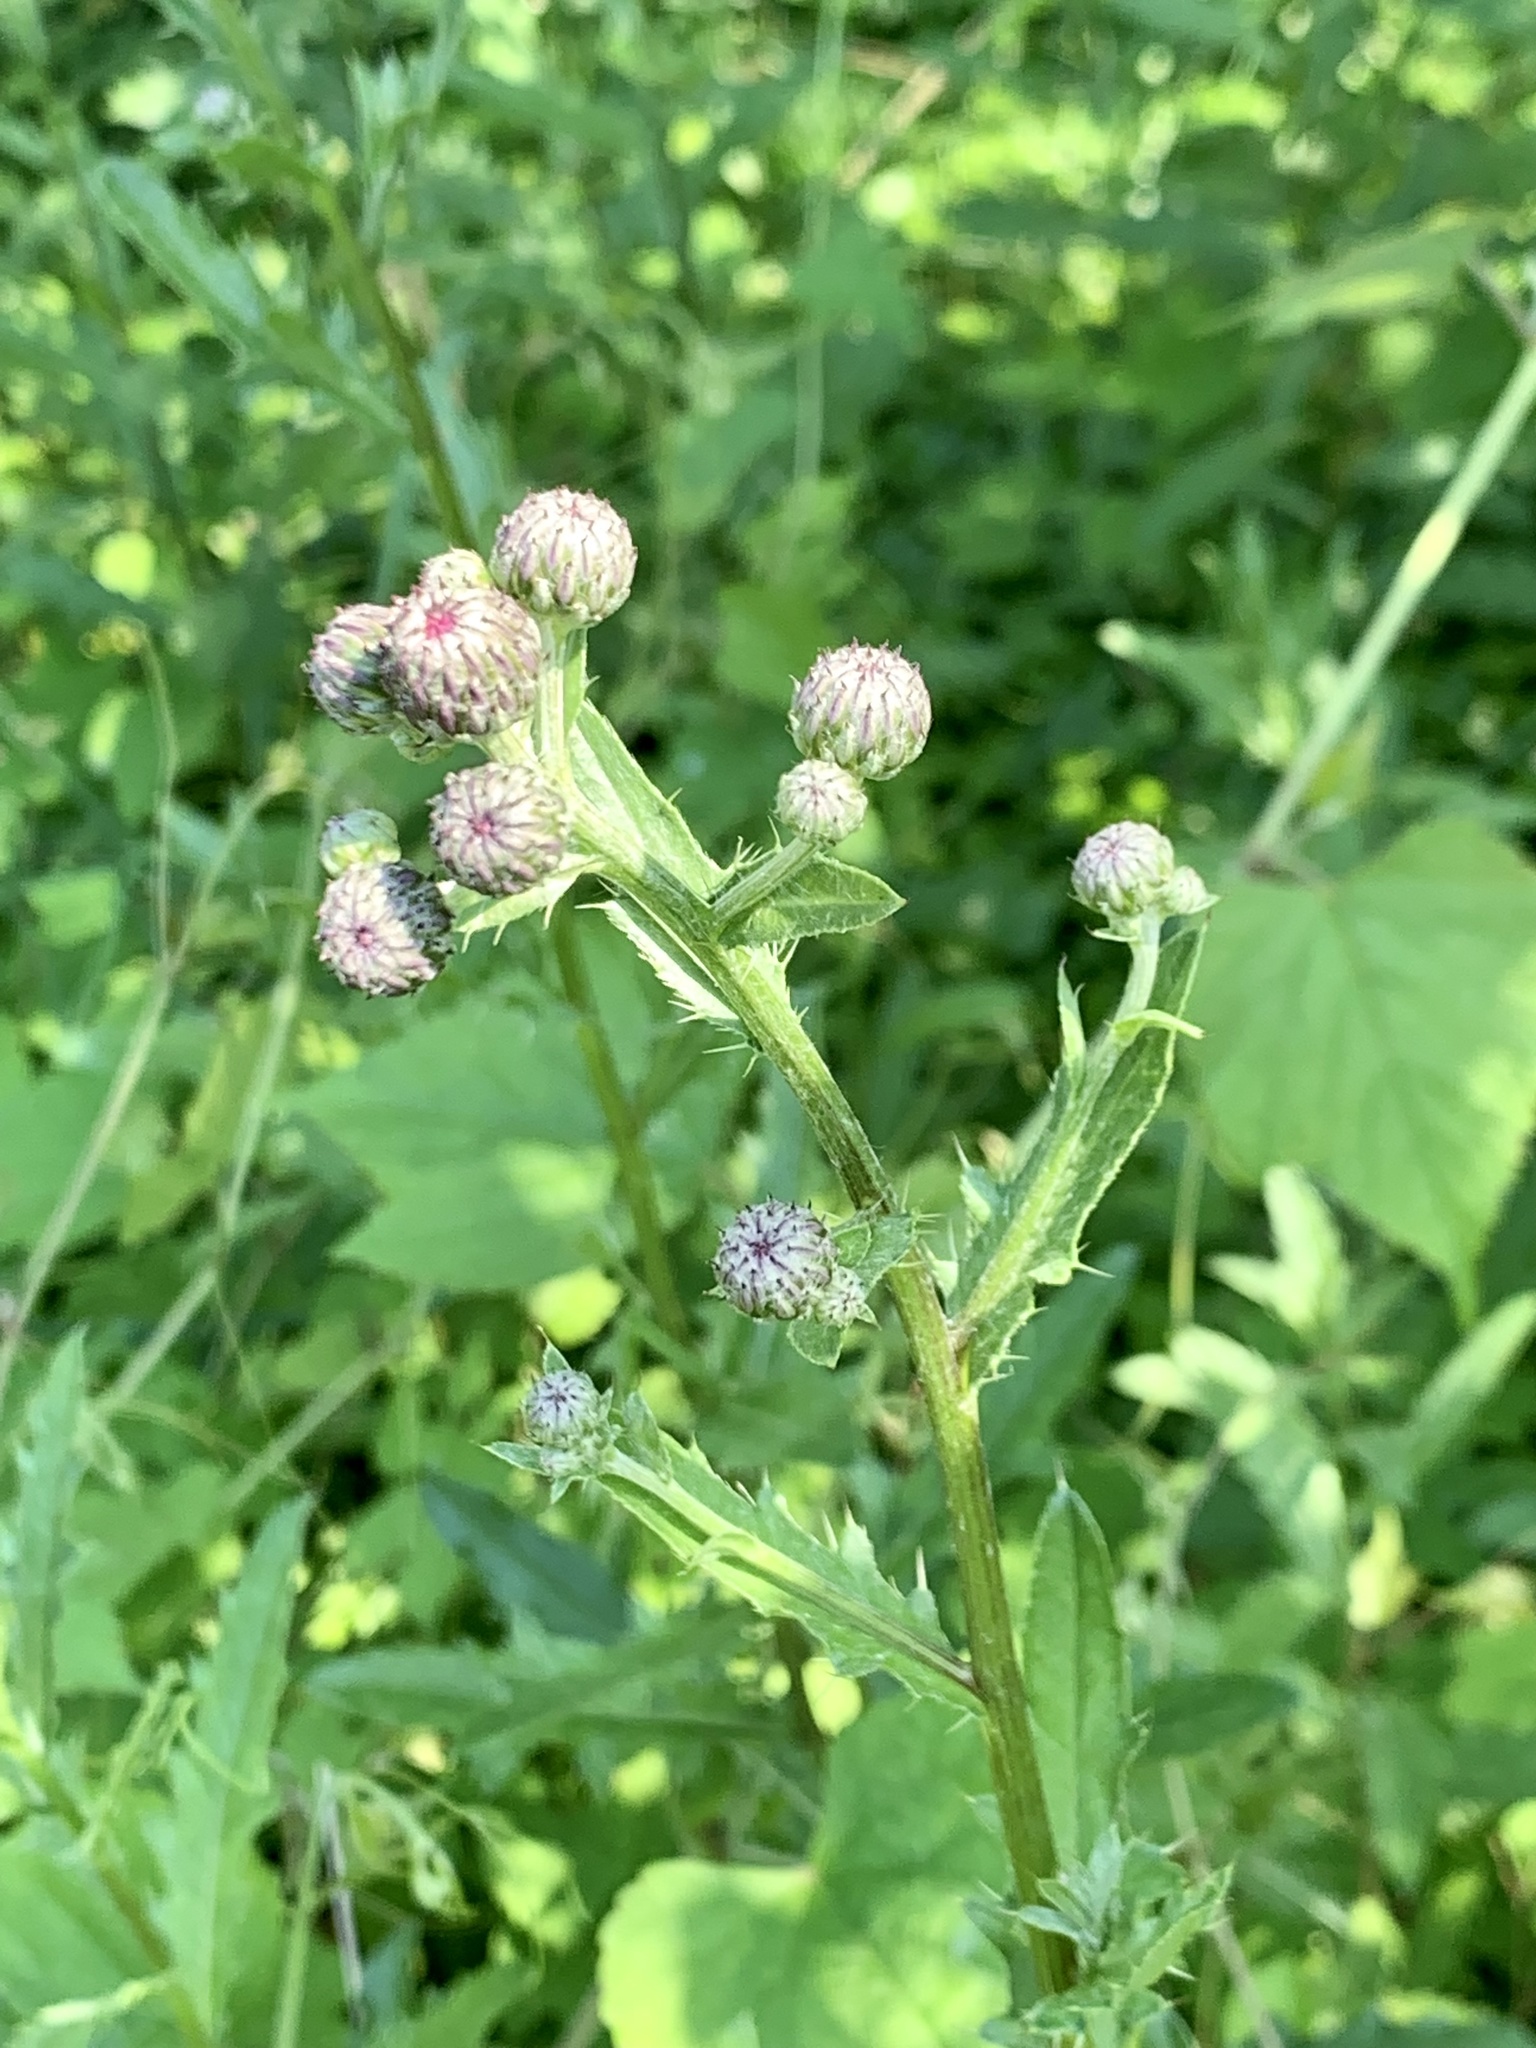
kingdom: Plantae
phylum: Tracheophyta
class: Magnoliopsida
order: Asterales
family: Asteraceae
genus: Cirsium
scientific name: Cirsium arvense
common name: Creeping thistle
